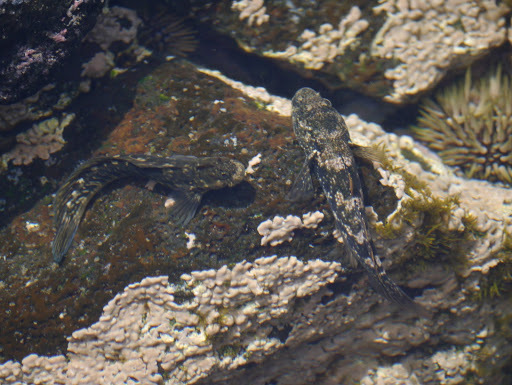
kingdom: Animalia
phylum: Chordata
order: Perciformes
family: Blenniidae
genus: Istiblennius
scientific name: Istiblennius zebra
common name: Zebra blenny
